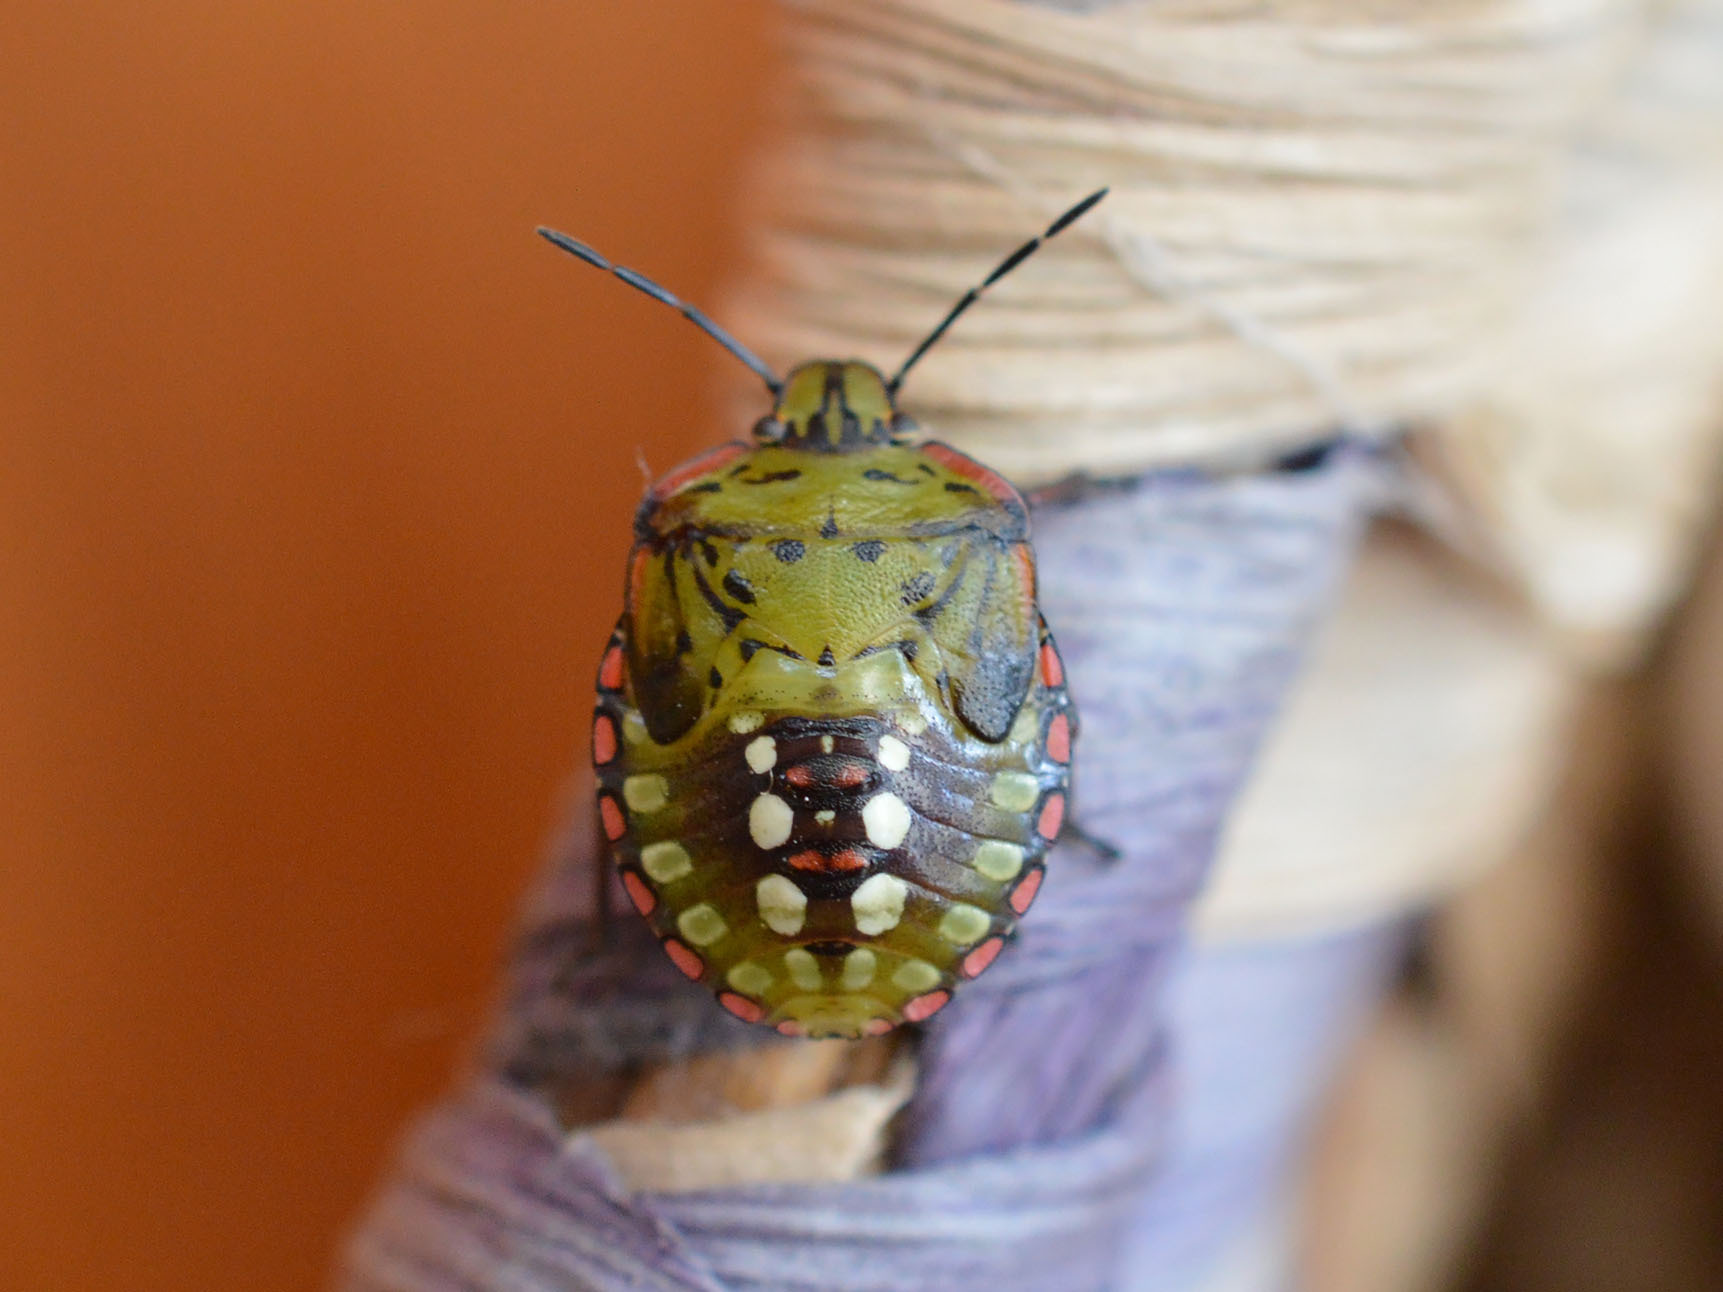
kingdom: Animalia
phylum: Arthropoda
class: Insecta
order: Hemiptera
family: Pentatomidae
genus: Nezara
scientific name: Nezara viridula
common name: Southern green stink bug
